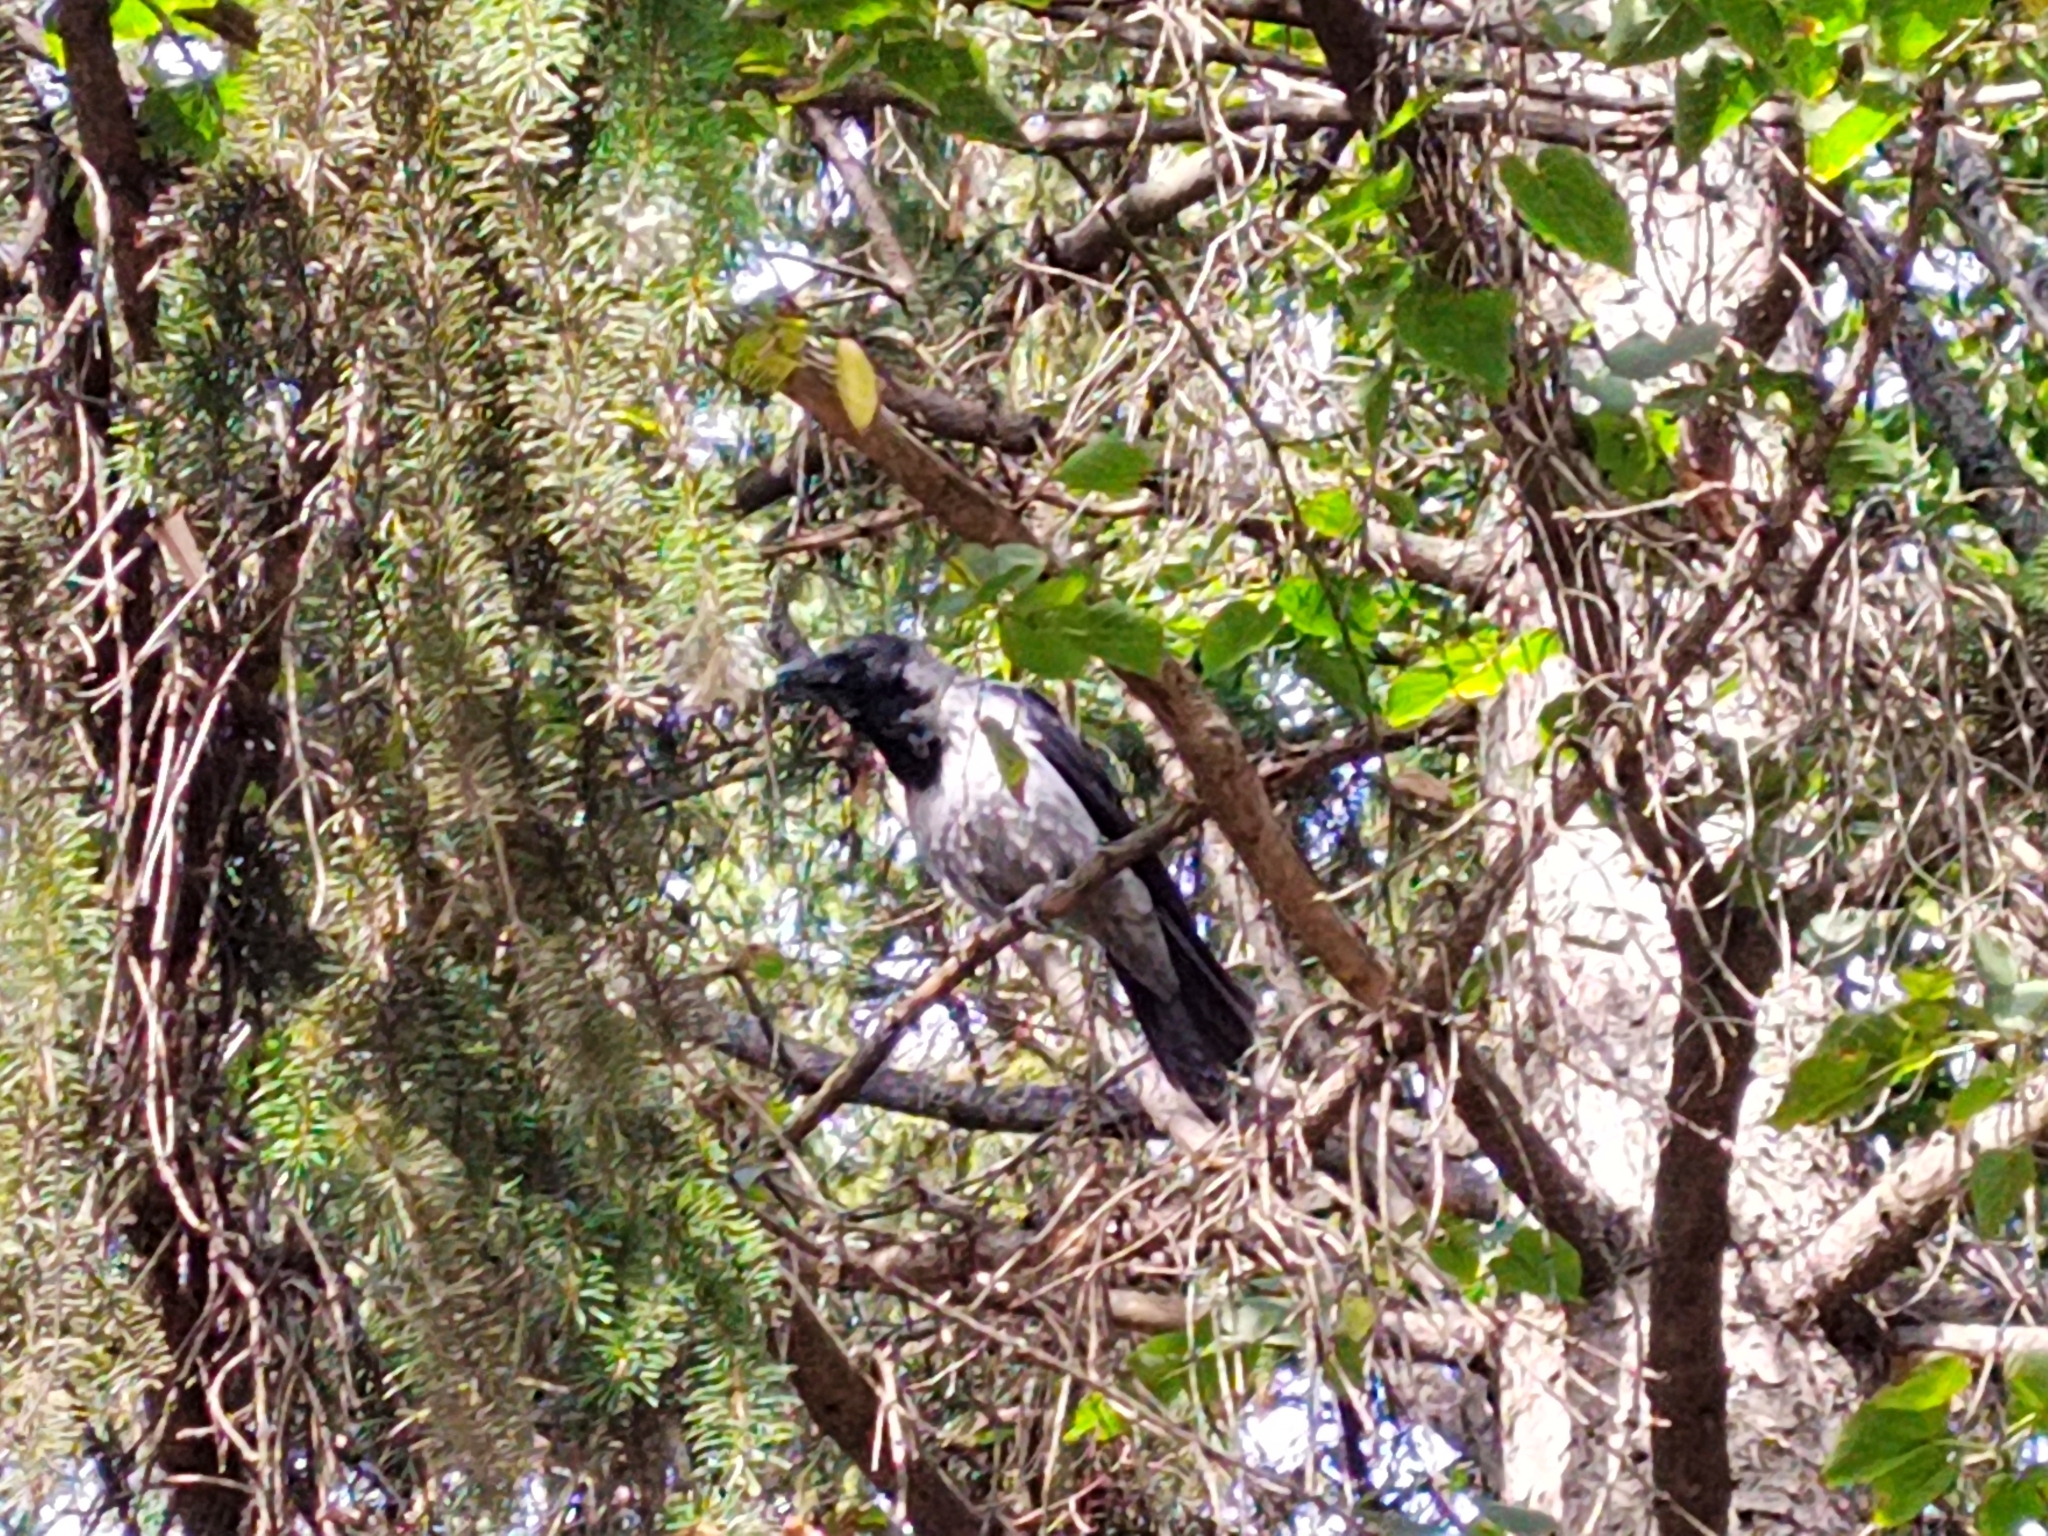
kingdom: Animalia
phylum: Chordata
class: Aves
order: Passeriformes
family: Corvidae
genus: Corvus
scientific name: Corvus cornix
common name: Hooded crow
